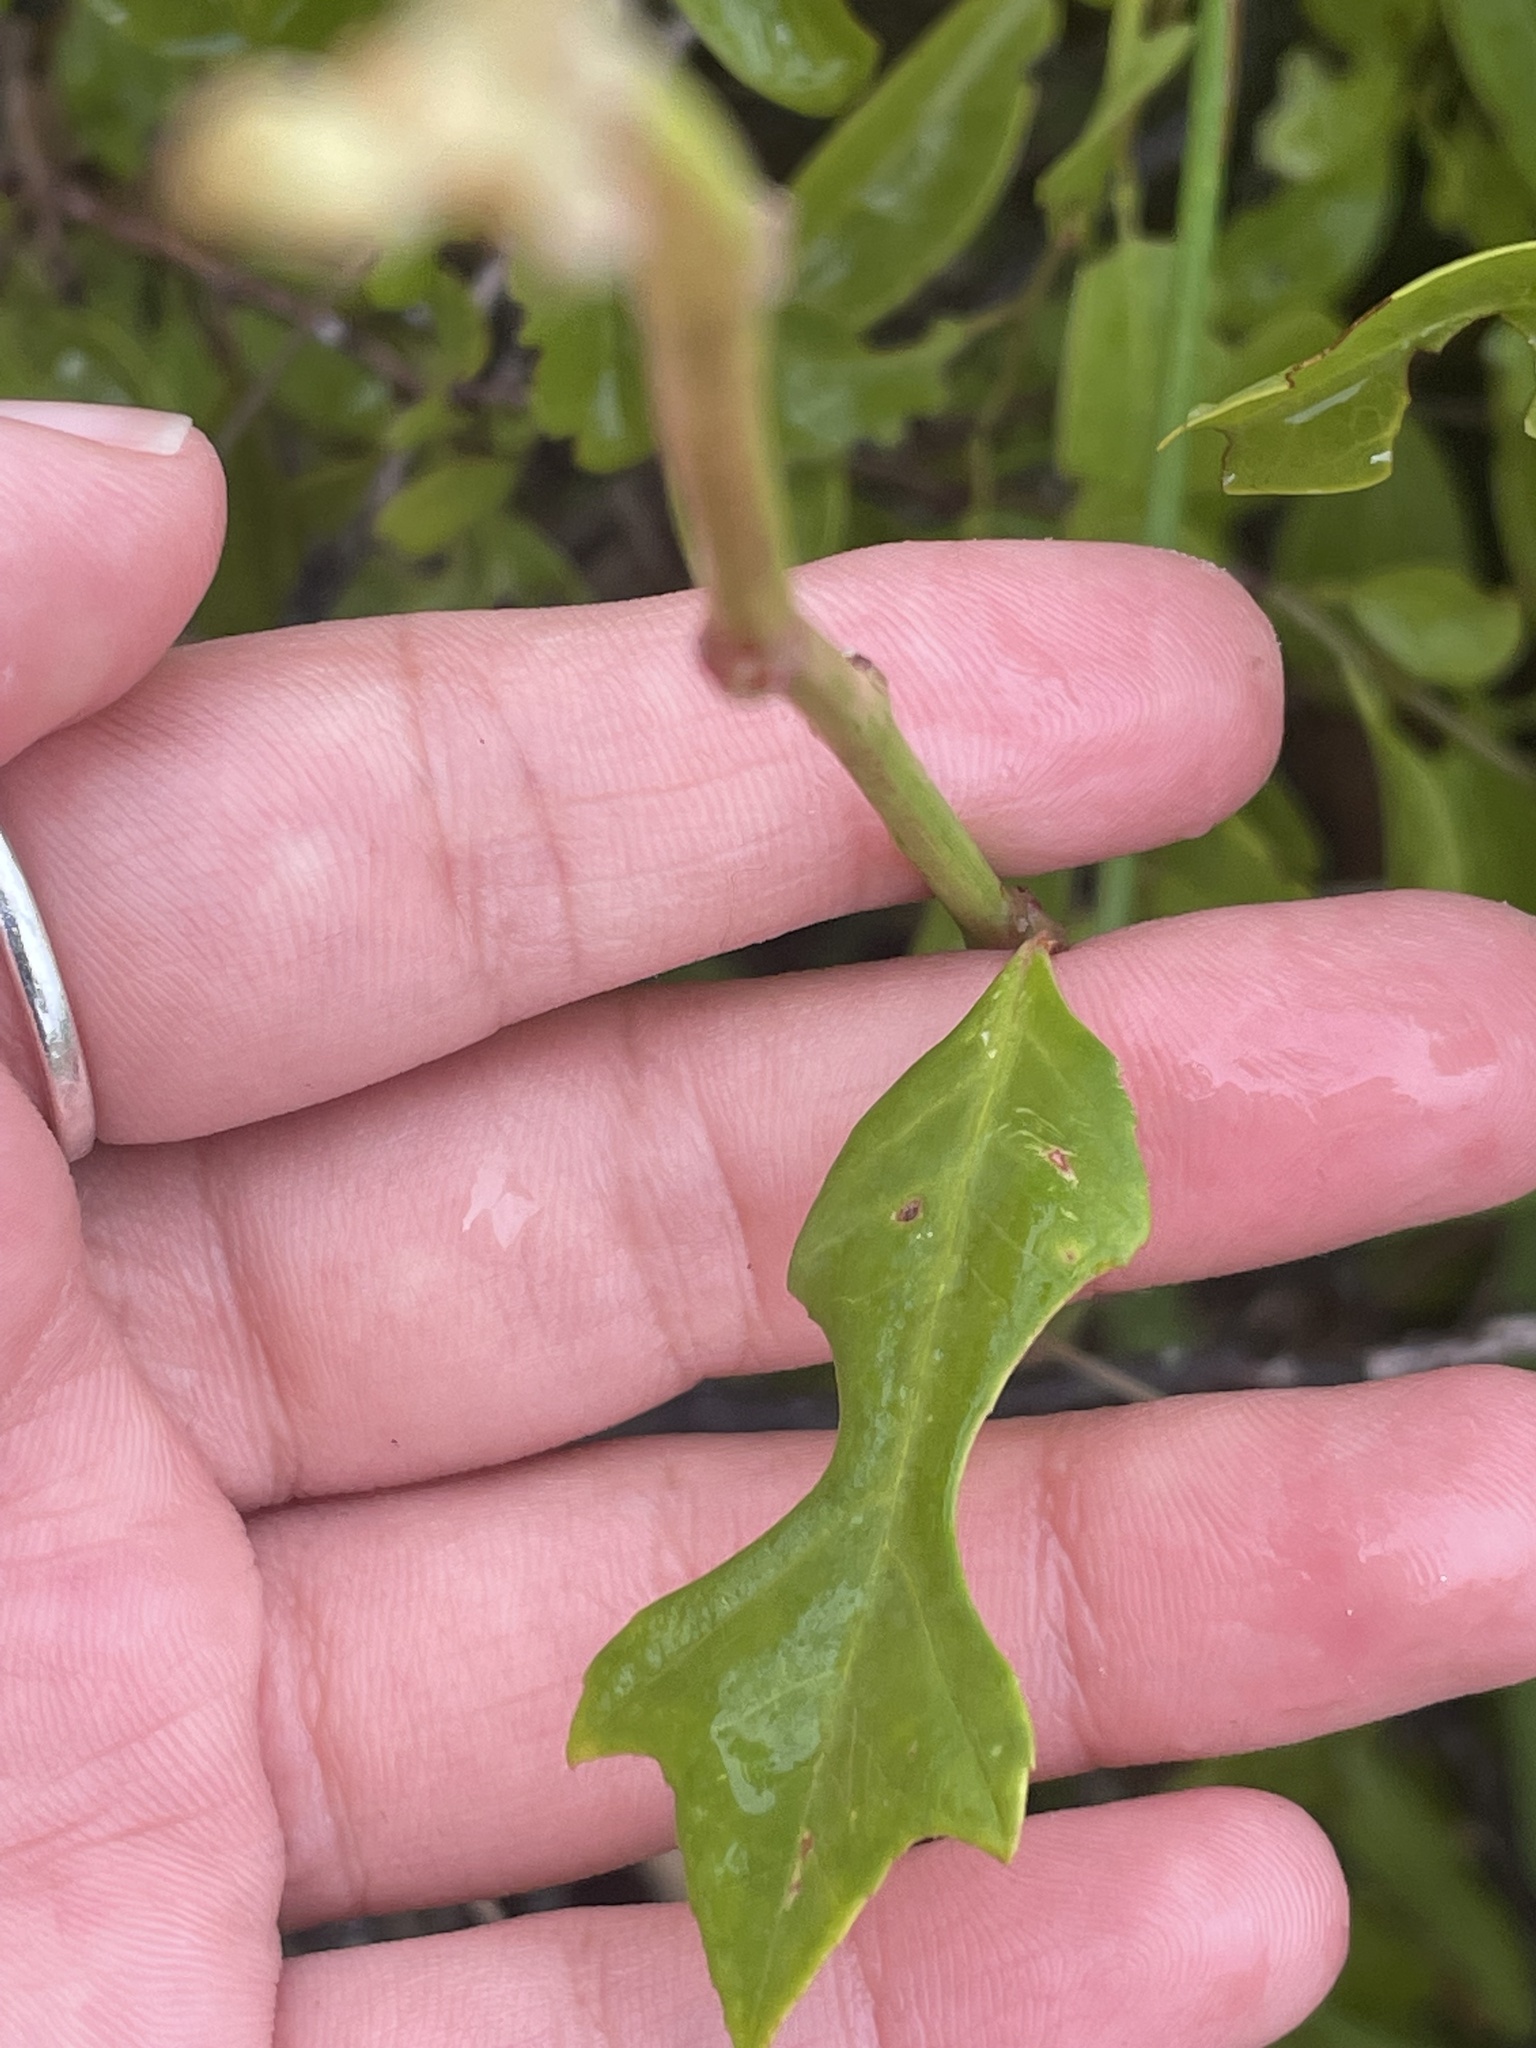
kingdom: Plantae
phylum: Tracheophyta
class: Magnoliopsida
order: Malpighiales
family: Euphorbiaceae
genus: Euphorbia
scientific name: Euphorbia heterophylla
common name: Mexican fireplant
